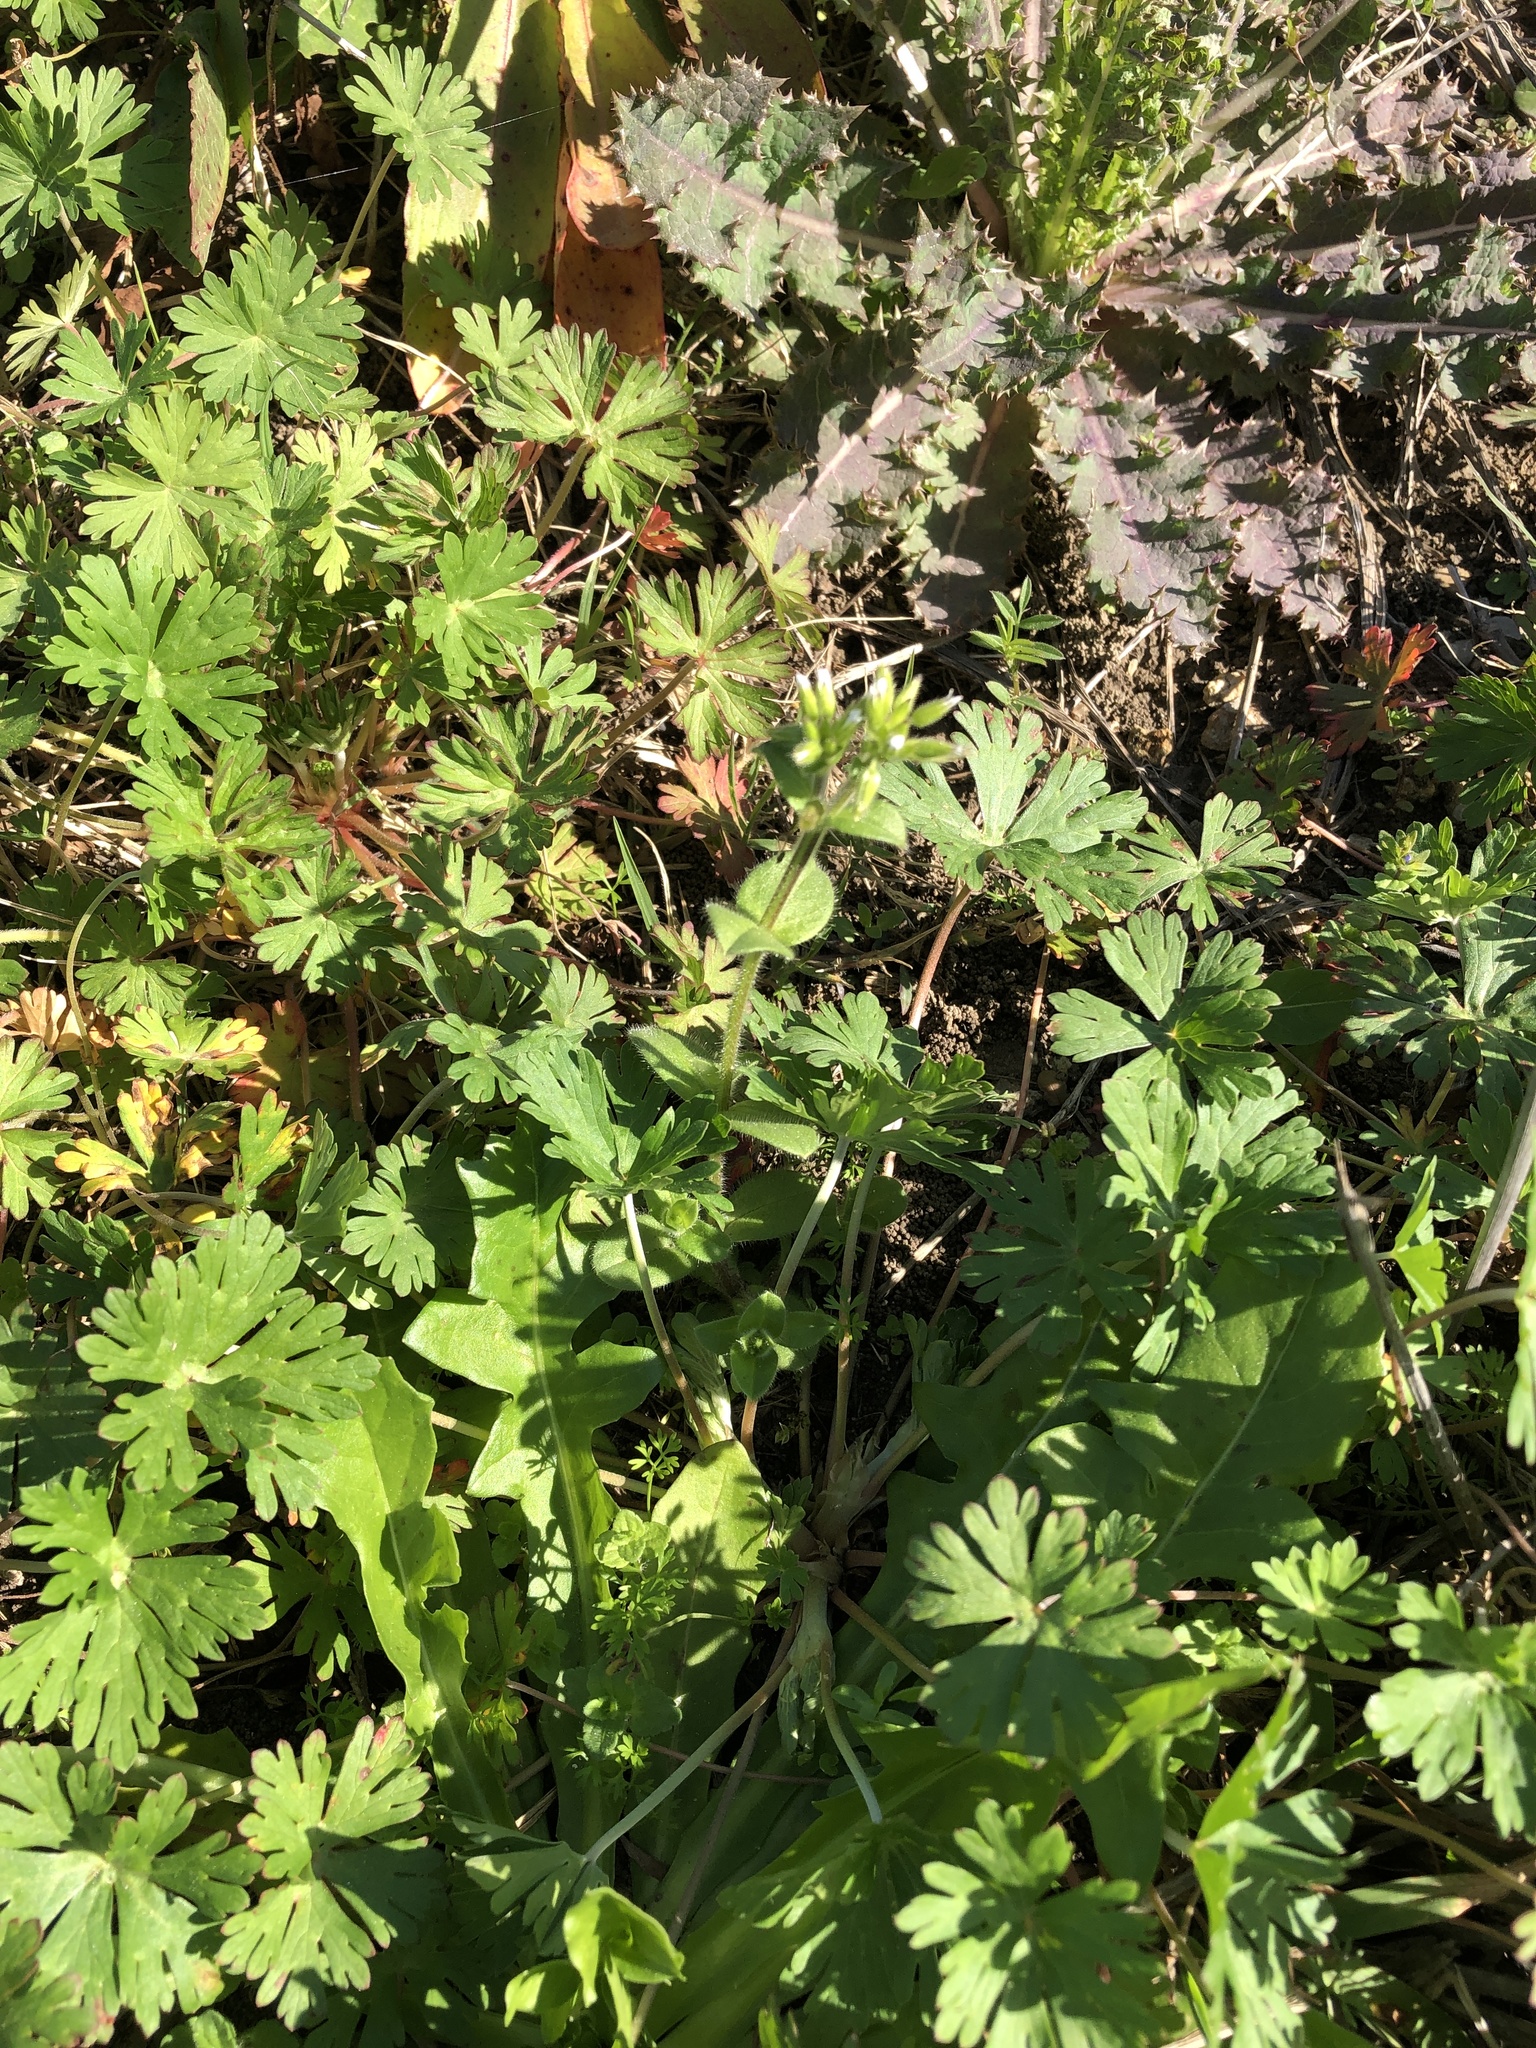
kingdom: Plantae
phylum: Tracheophyta
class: Magnoliopsida
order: Caryophyllales
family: Caryophyllaceae
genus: Cerastium
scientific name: Cerastium glomeratum
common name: Sticky chickweed
